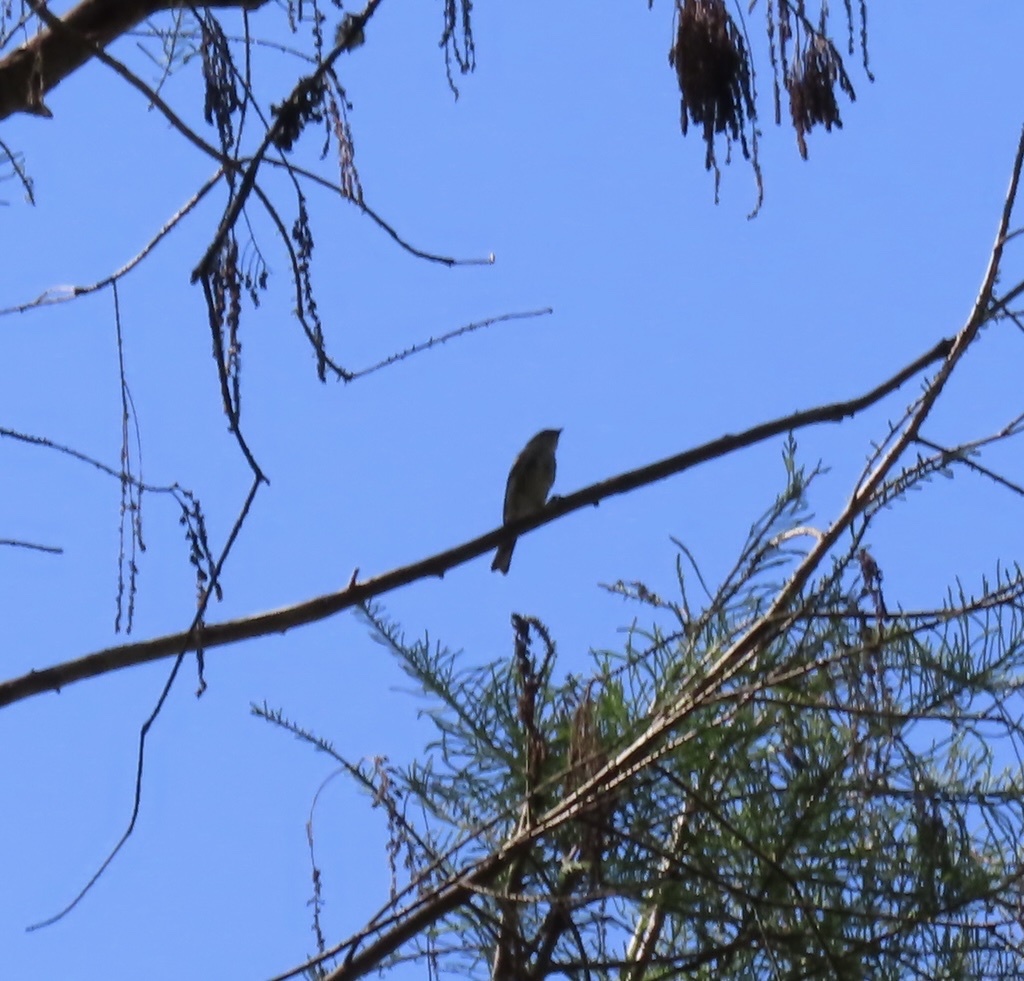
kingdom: Animalia
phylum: Chordata
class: Aves
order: Passeriformes
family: Parulidae
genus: Setophaga
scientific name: Setophaga coronata
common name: Myrtle warbler
